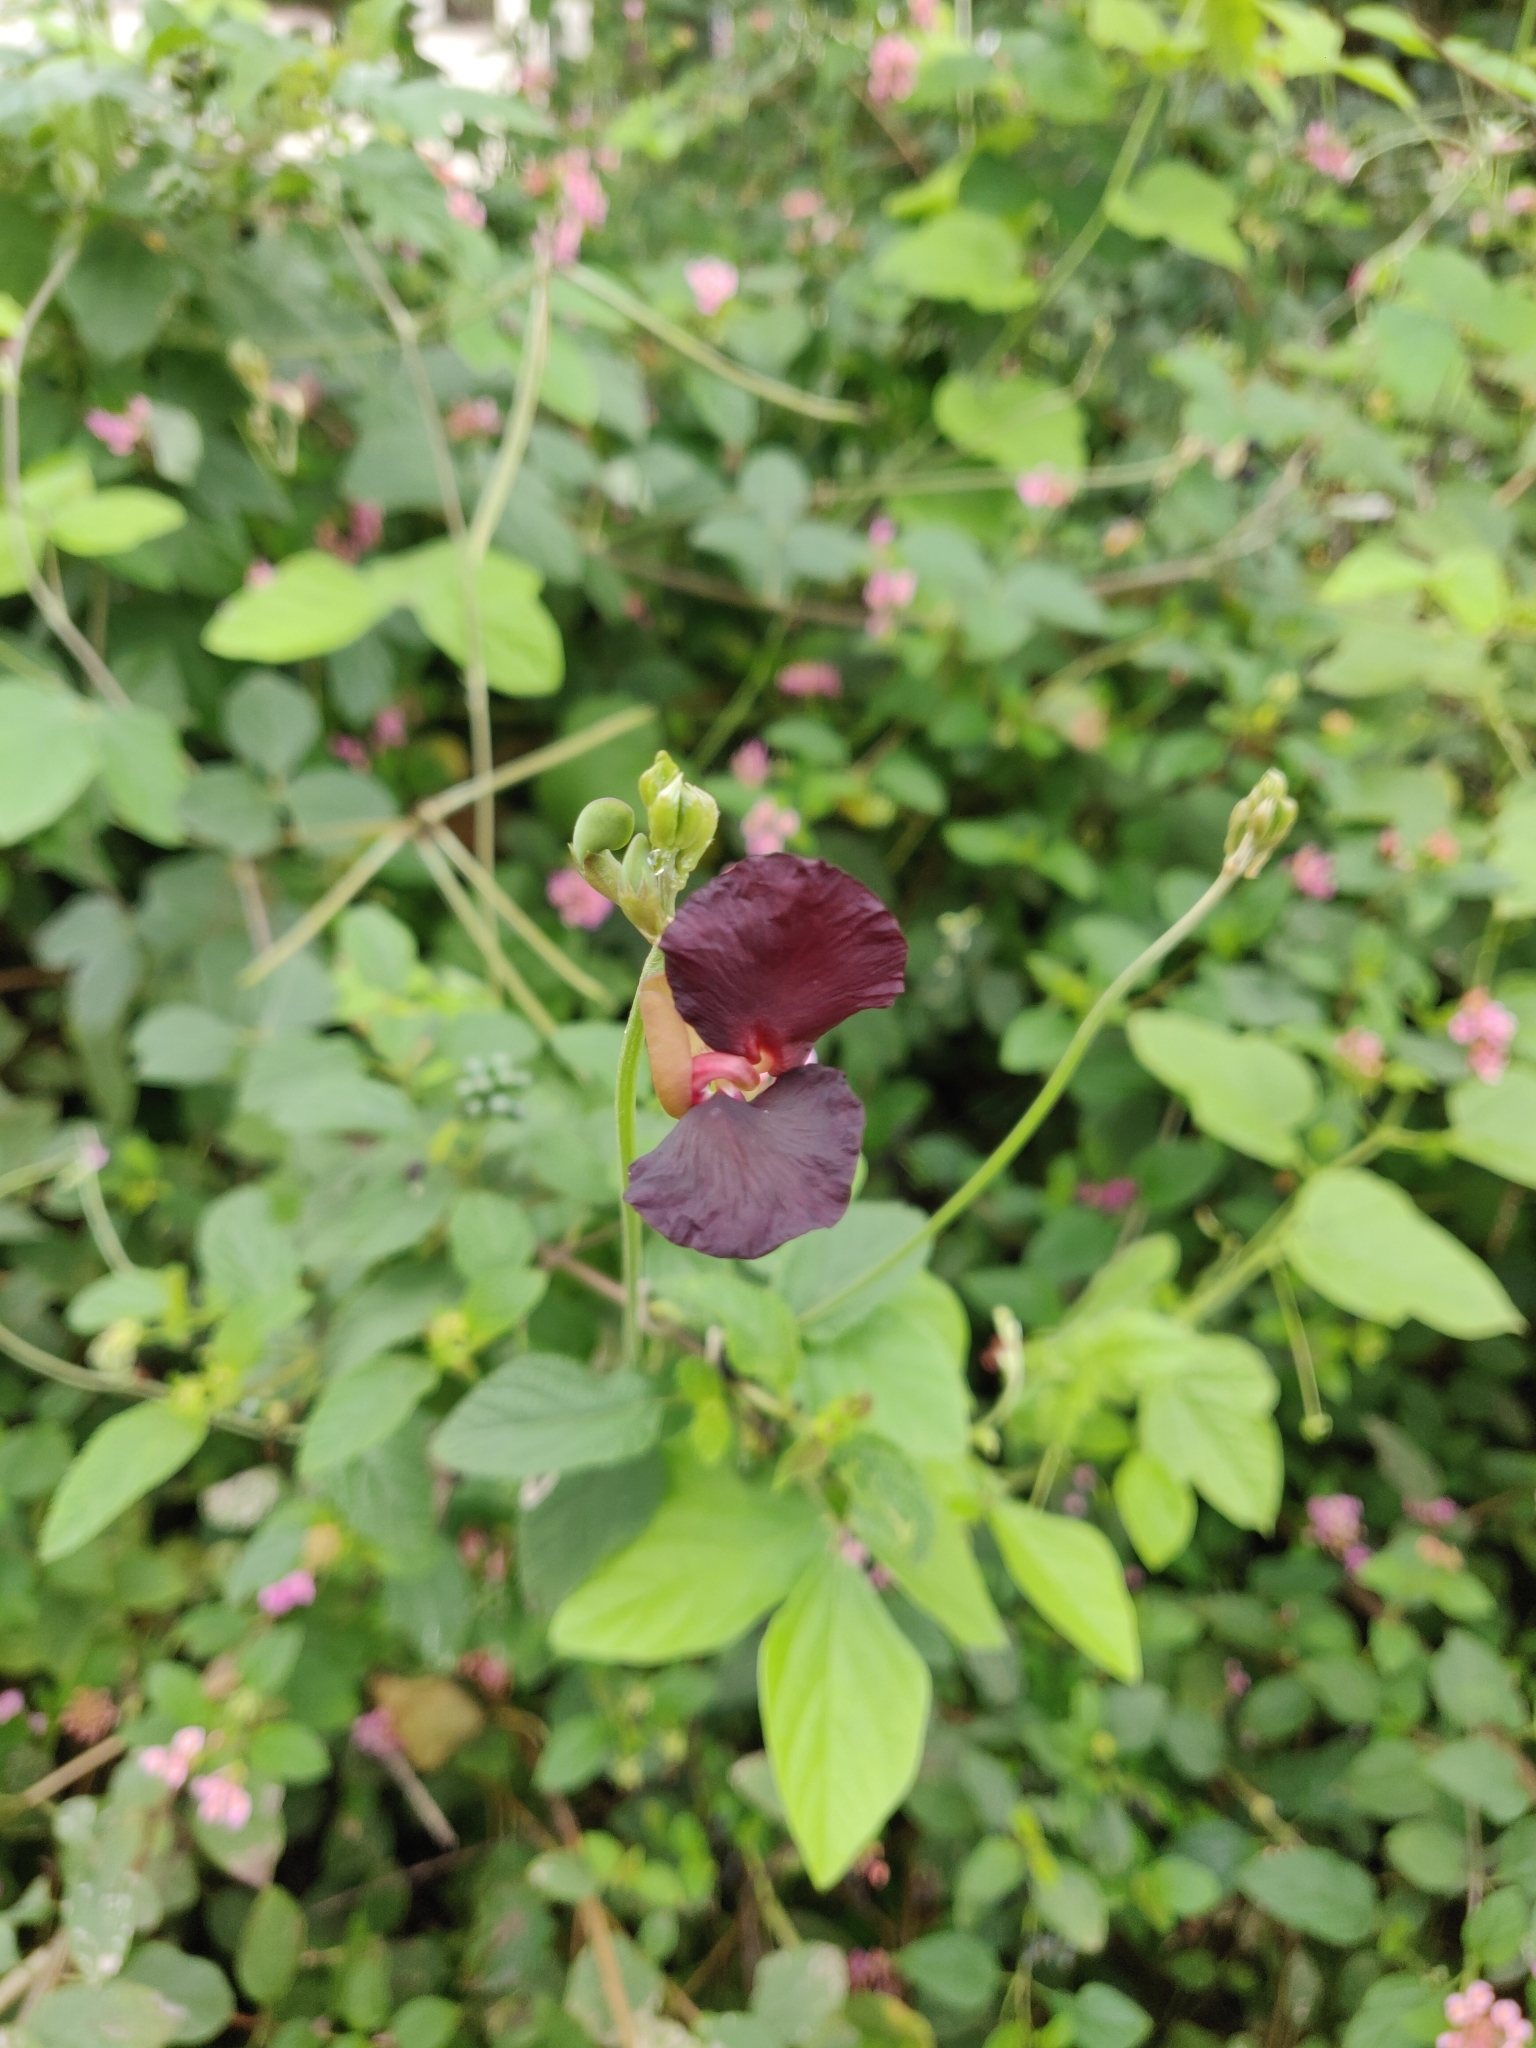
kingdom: Plantae
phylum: Tracheophyta
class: Magnoliopsida
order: Fabales
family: Fabaceae
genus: Macroptilium
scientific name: Macroptilium atropurpureum
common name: Purple bushbean
